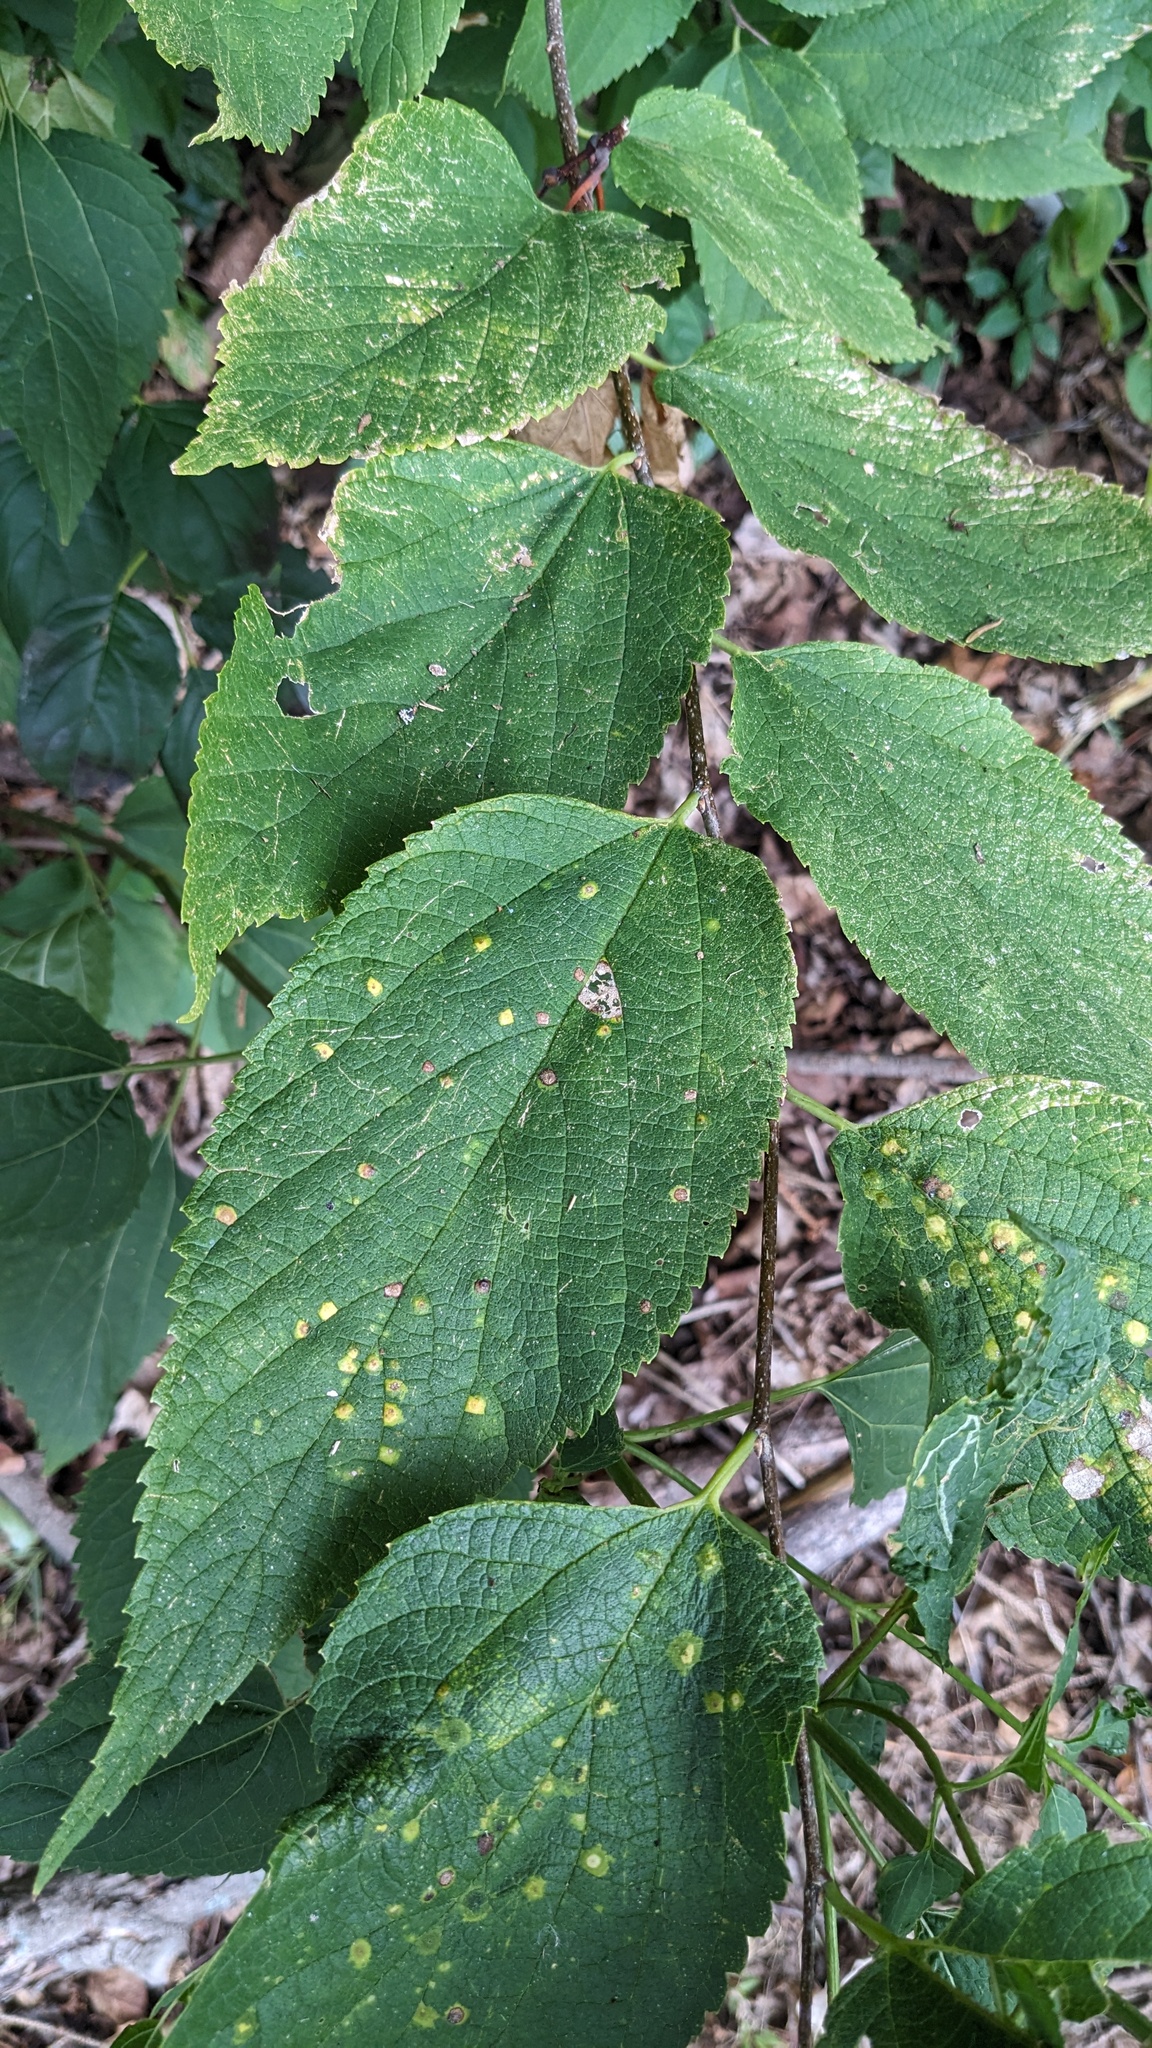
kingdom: Plantae
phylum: Tracheophyta
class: Magnoliopsida
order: Rosales
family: Cannabaceae
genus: Celtis
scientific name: Celtis occidentalis
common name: Common hackberry
